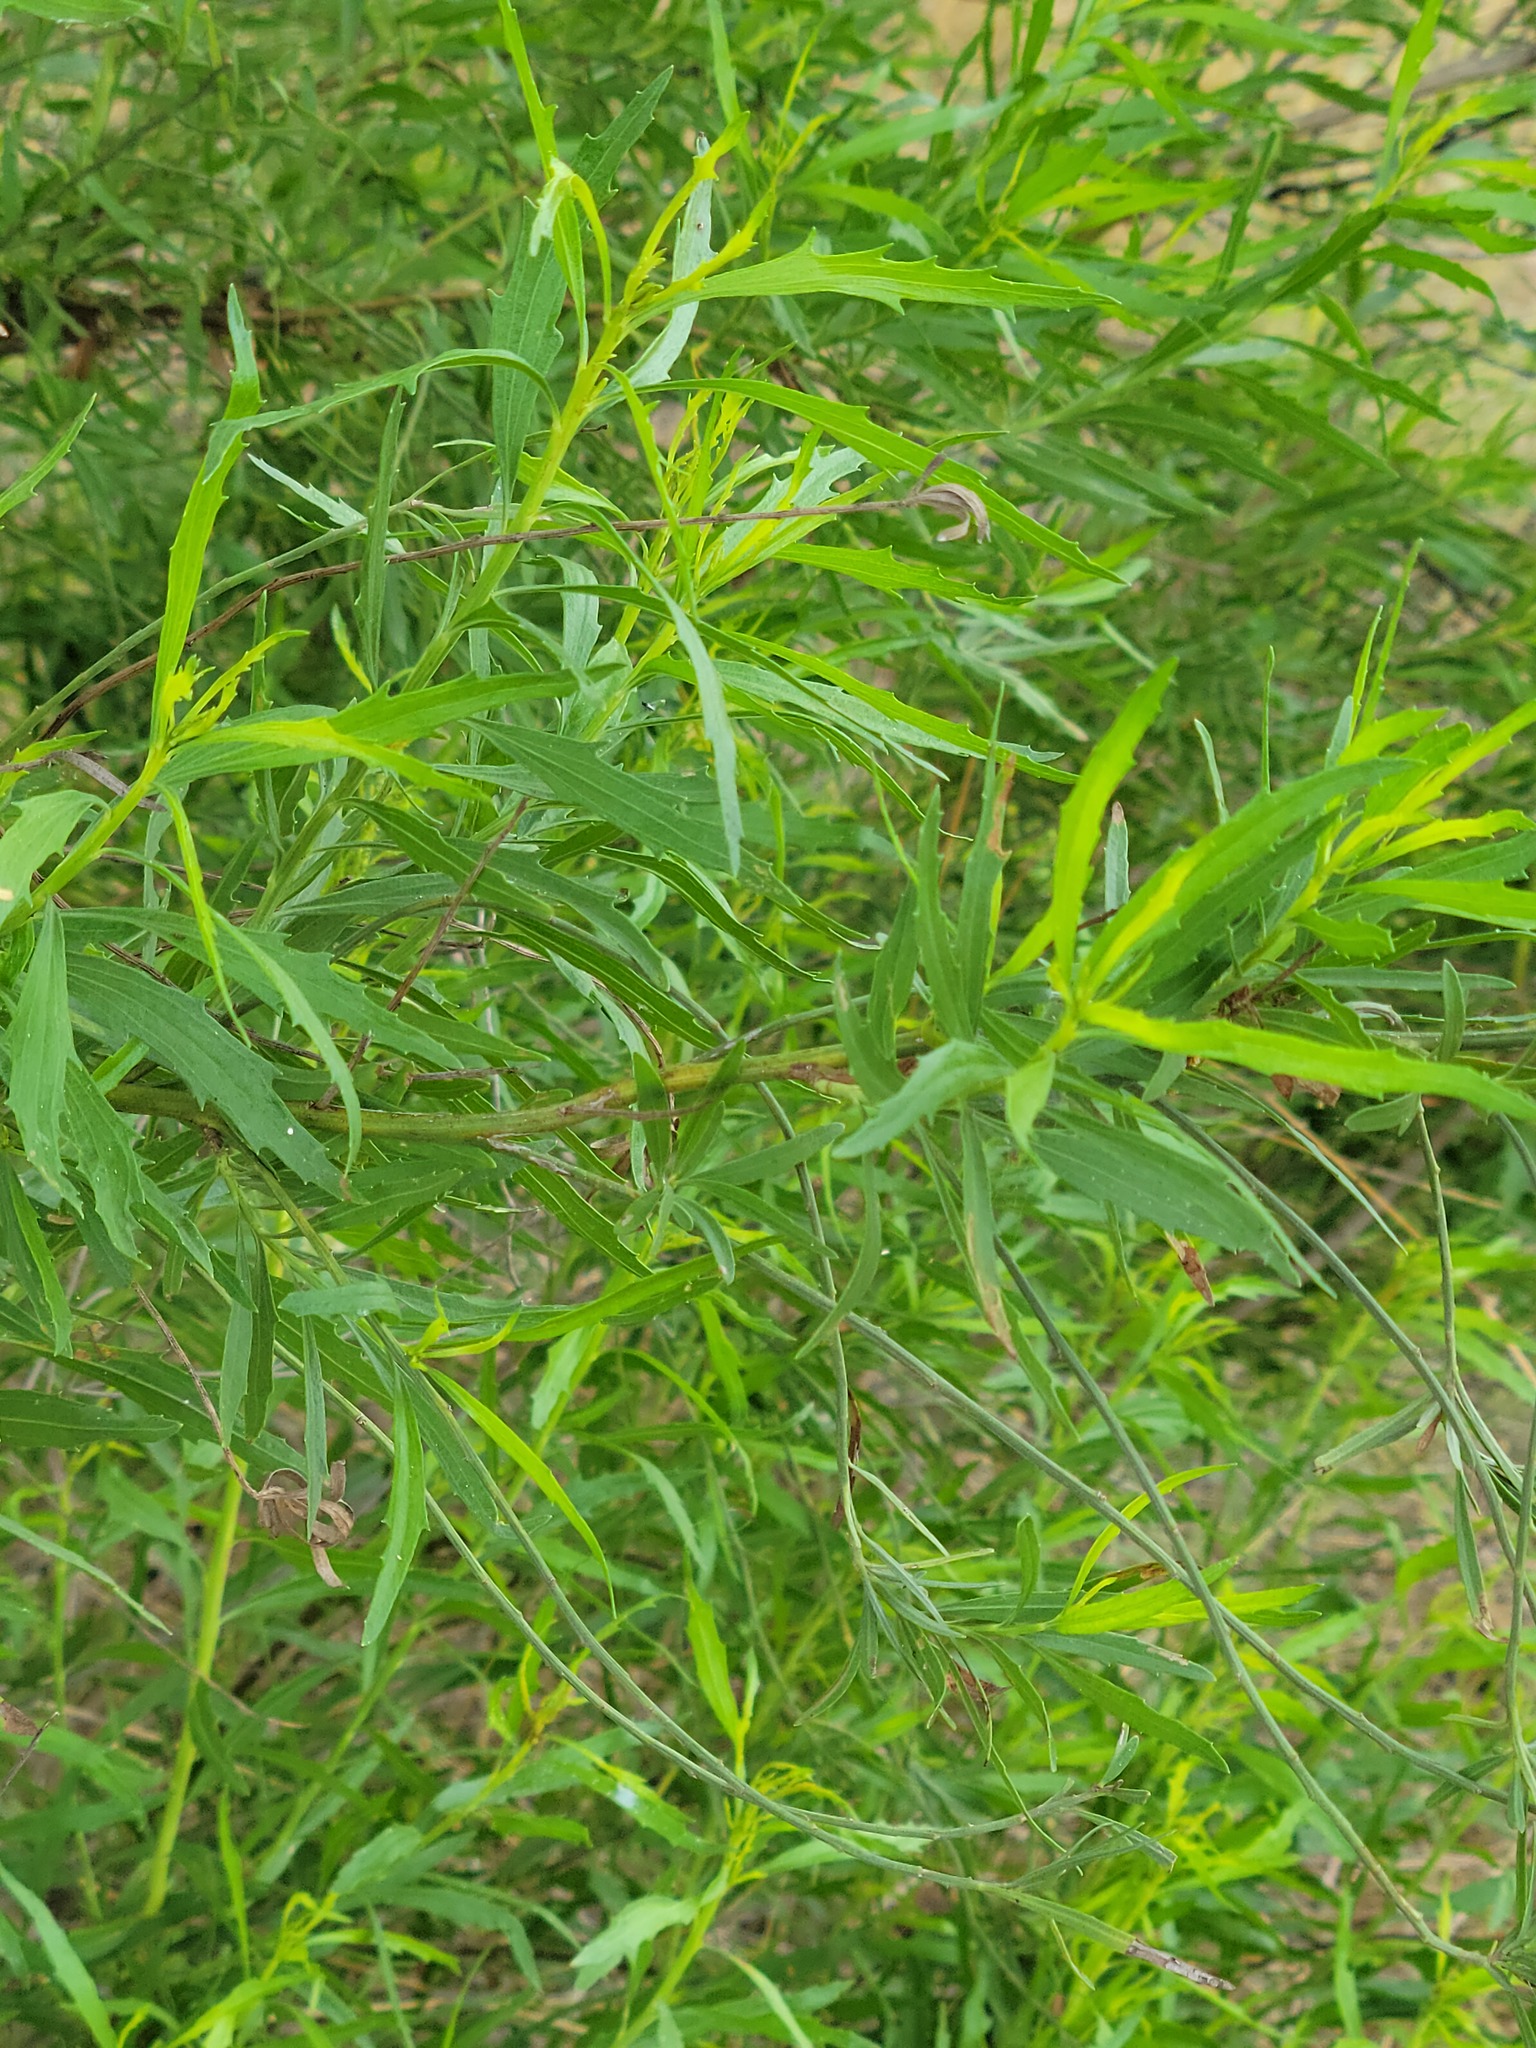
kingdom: Plantae
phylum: Tracheophyta
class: Magnoliopsida
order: Asterales
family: Asteraceae
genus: Baccharis
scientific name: Baccharis neglecta
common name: Roosevelt-weed
